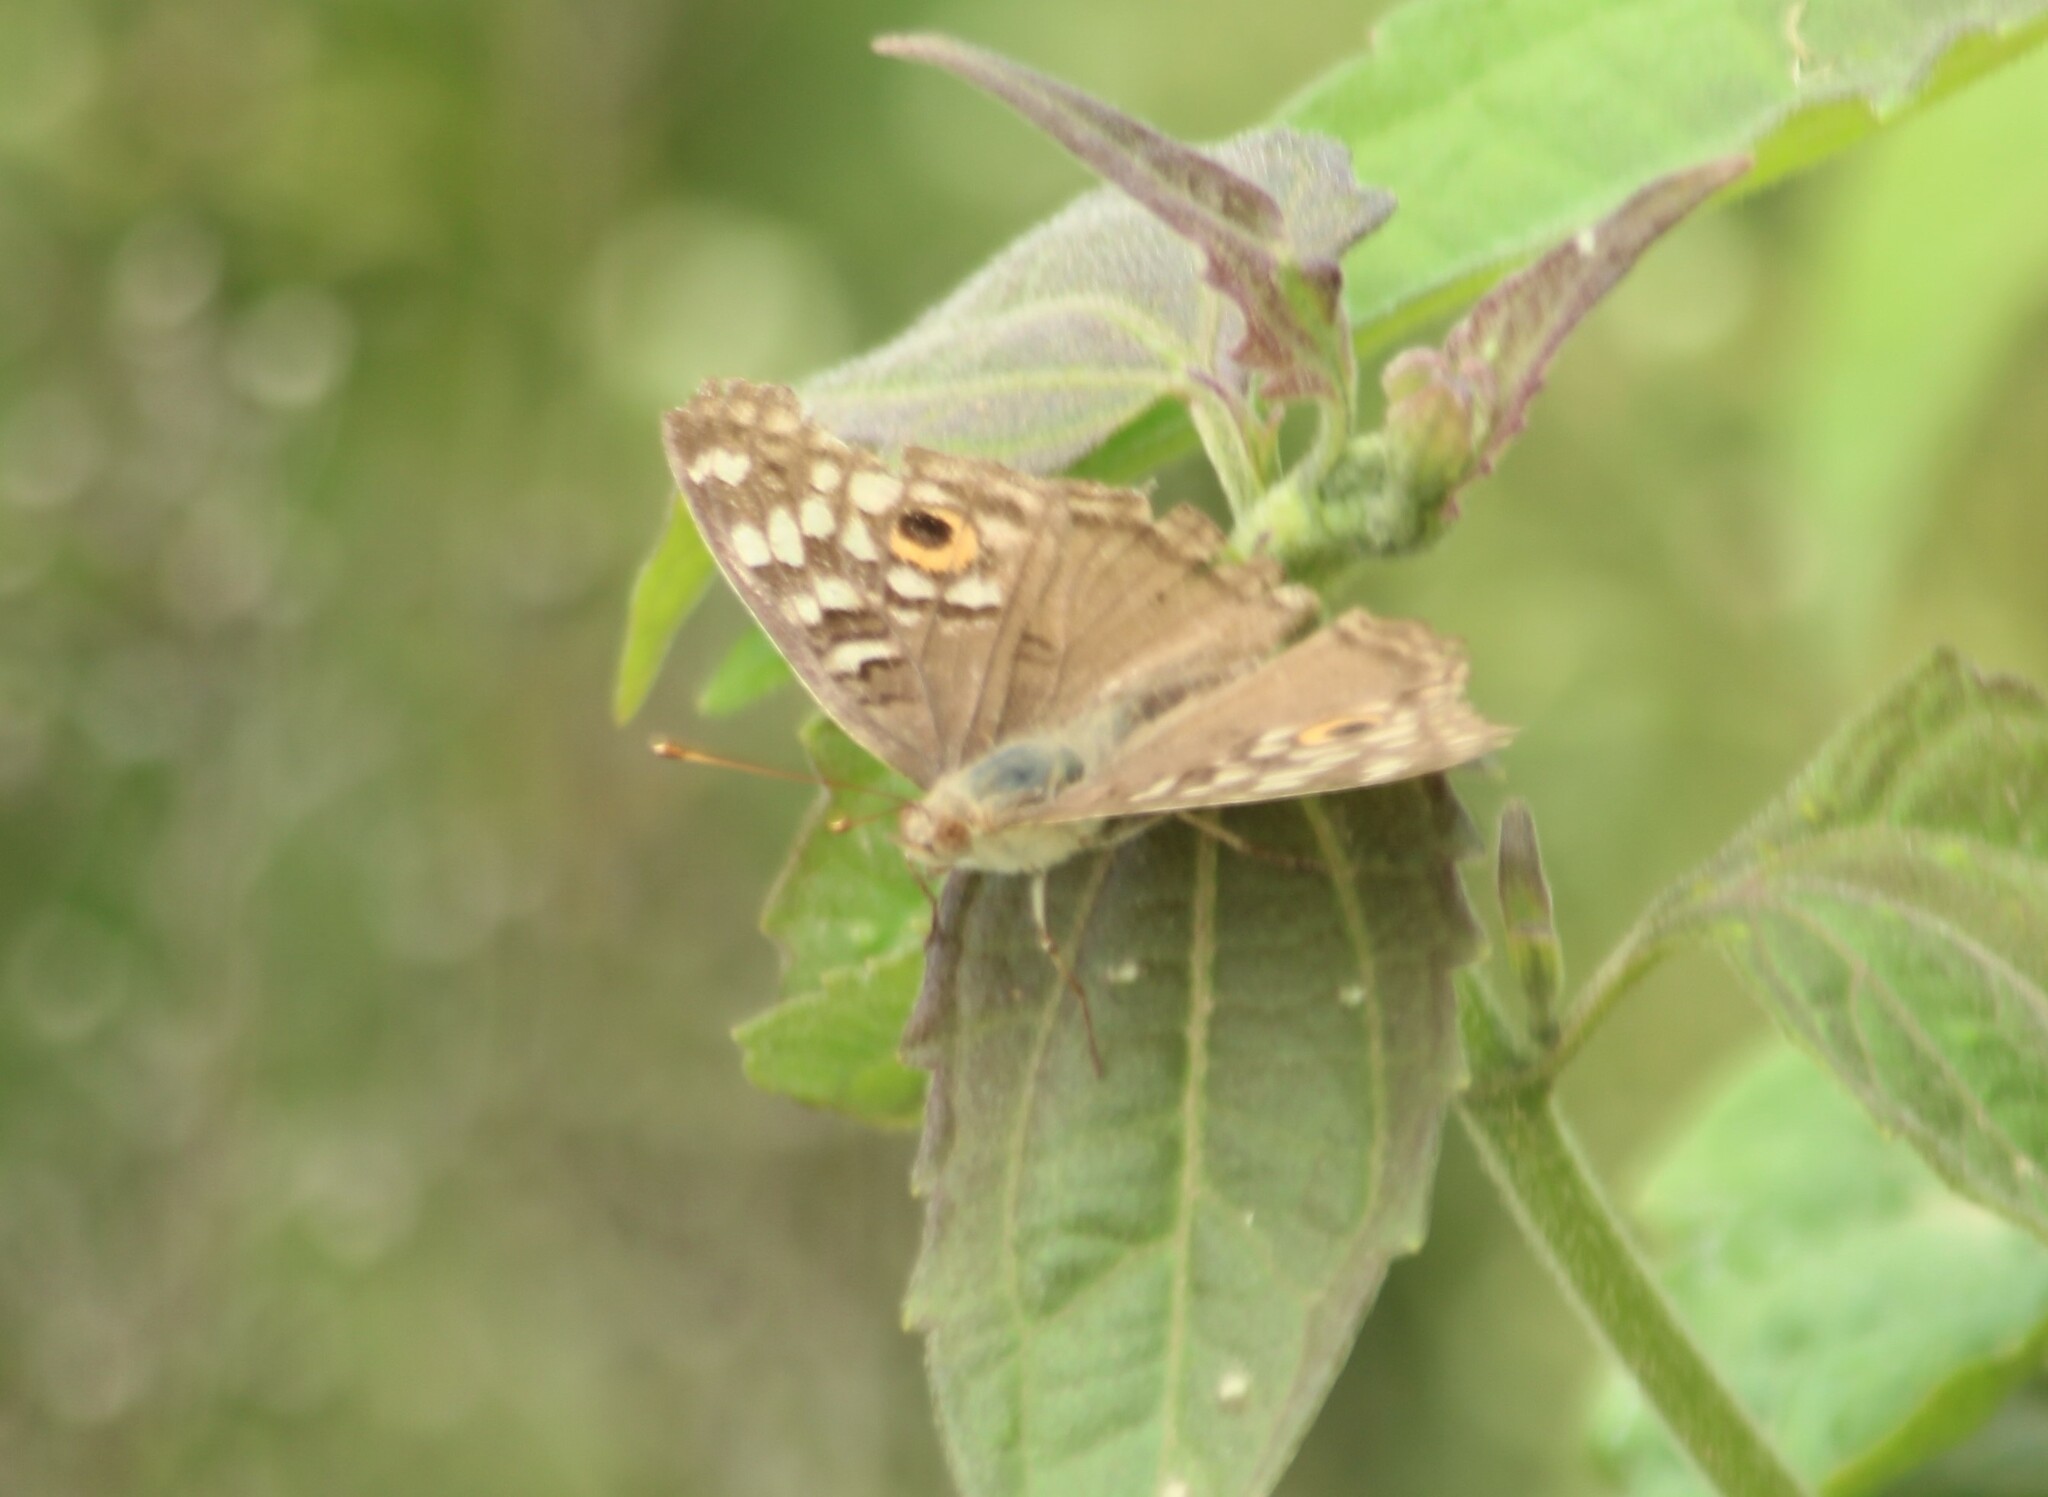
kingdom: Animalia
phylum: Arthropoda
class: Insecta
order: Lepidoptera
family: Nymphalidae
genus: Junonia
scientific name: Junonia lemonias
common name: Lemon pansy
